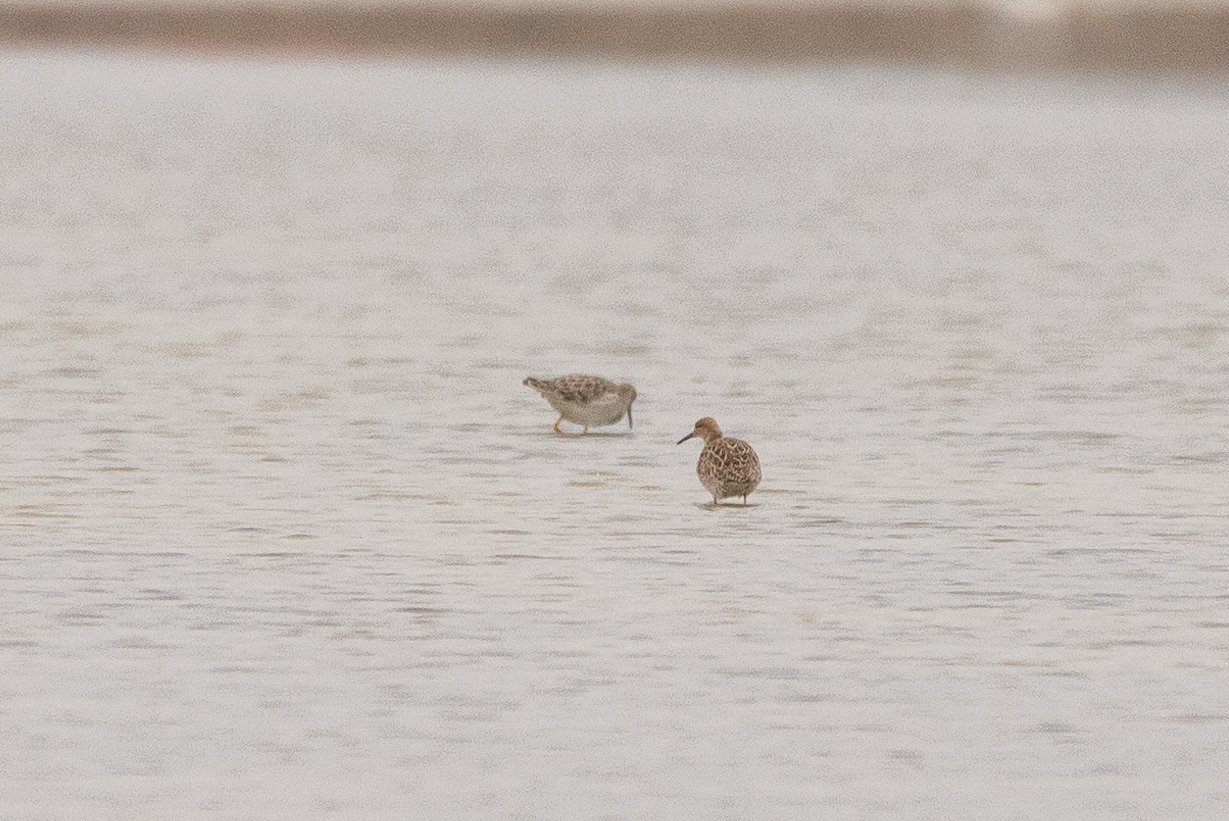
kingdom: Animalia
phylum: Chordata
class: Aves
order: Charadriiformes
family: Scolopacidae
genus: Calidris
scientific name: Calidris pugnax
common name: Ruff
